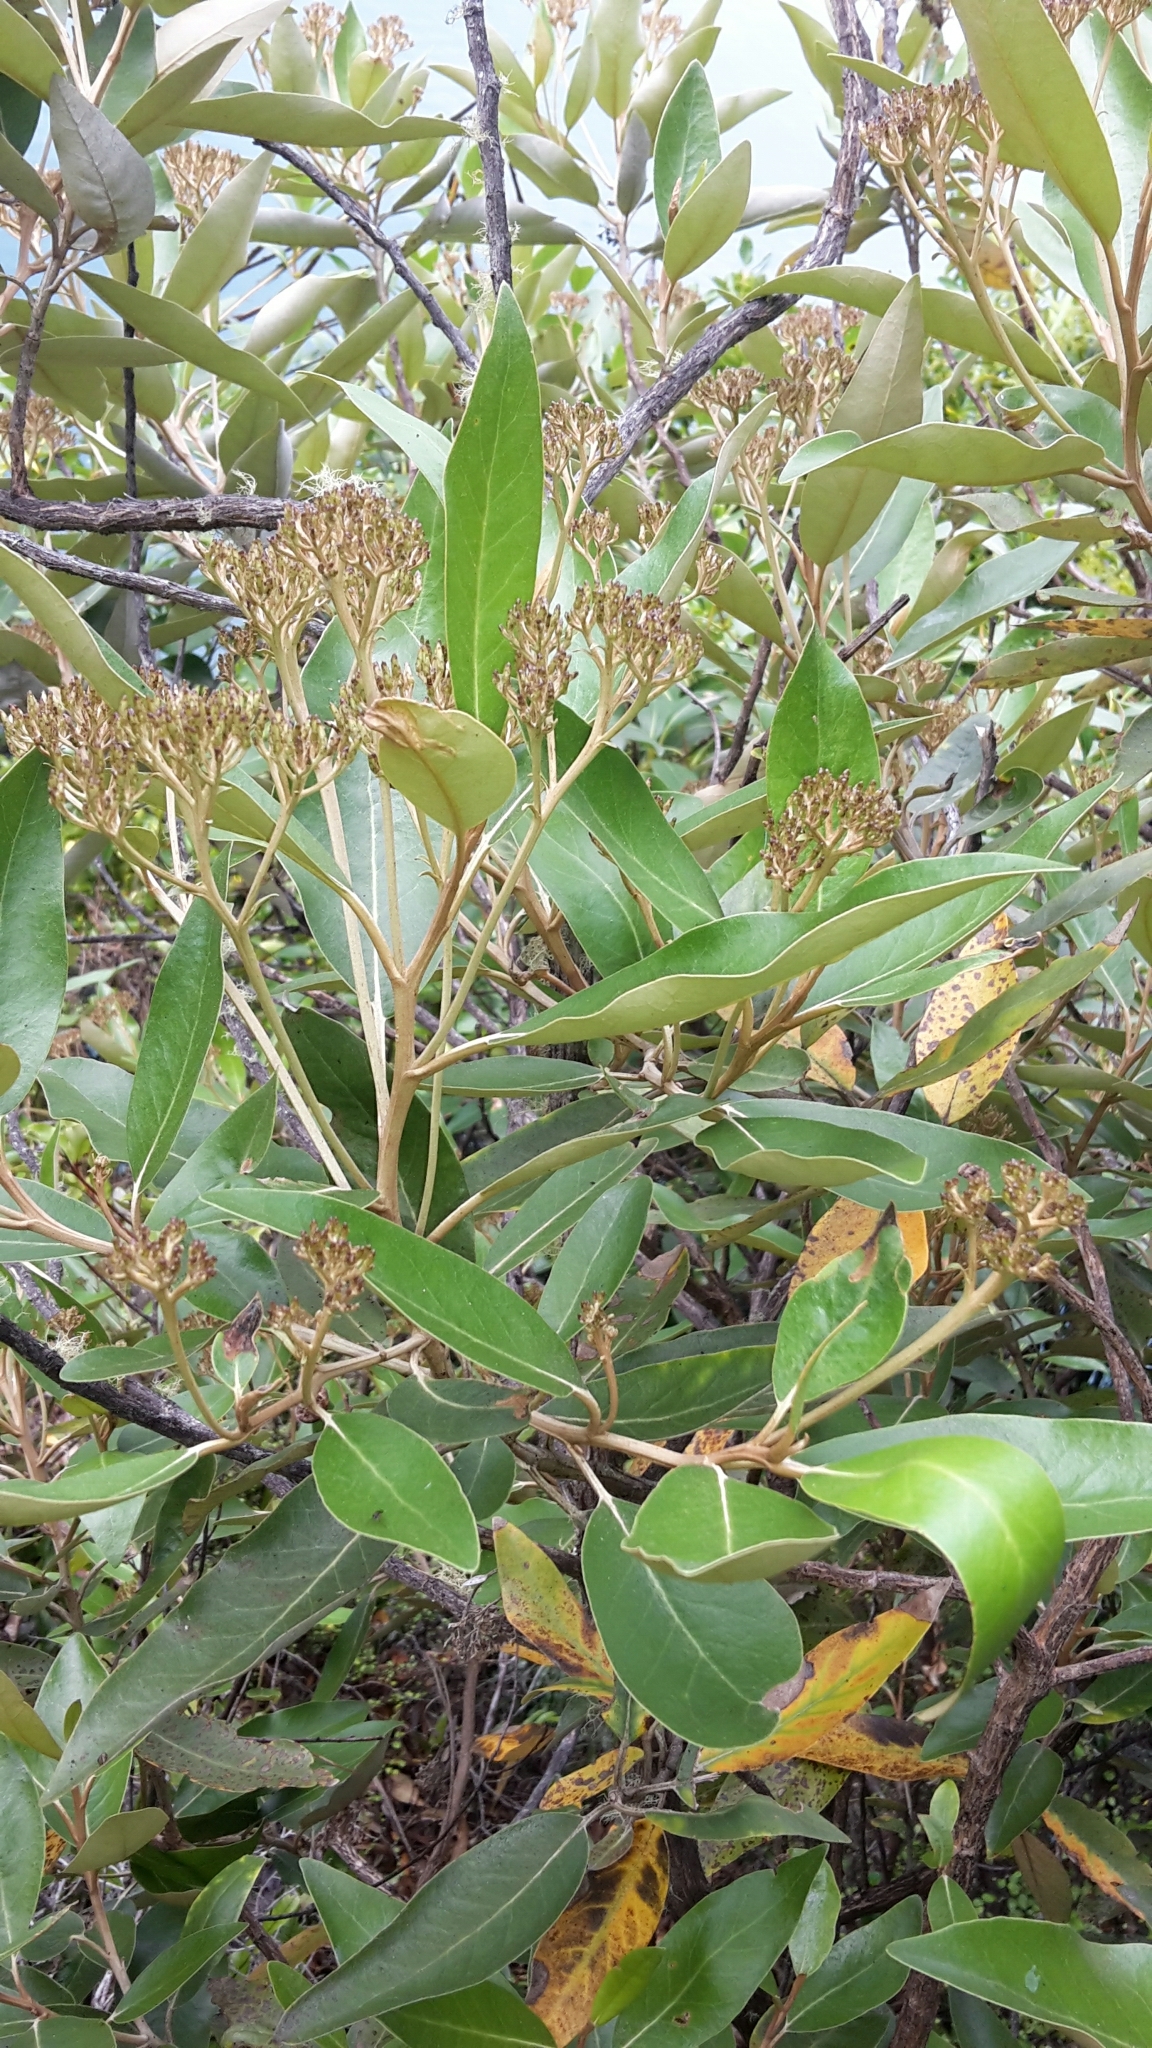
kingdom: Plantae
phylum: Tracheophyta
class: Magnoliopsida
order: Asterales
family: Asteraceae
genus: Olearia
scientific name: Olearia avicenniifolia
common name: Mangrove-leaf daisybush
